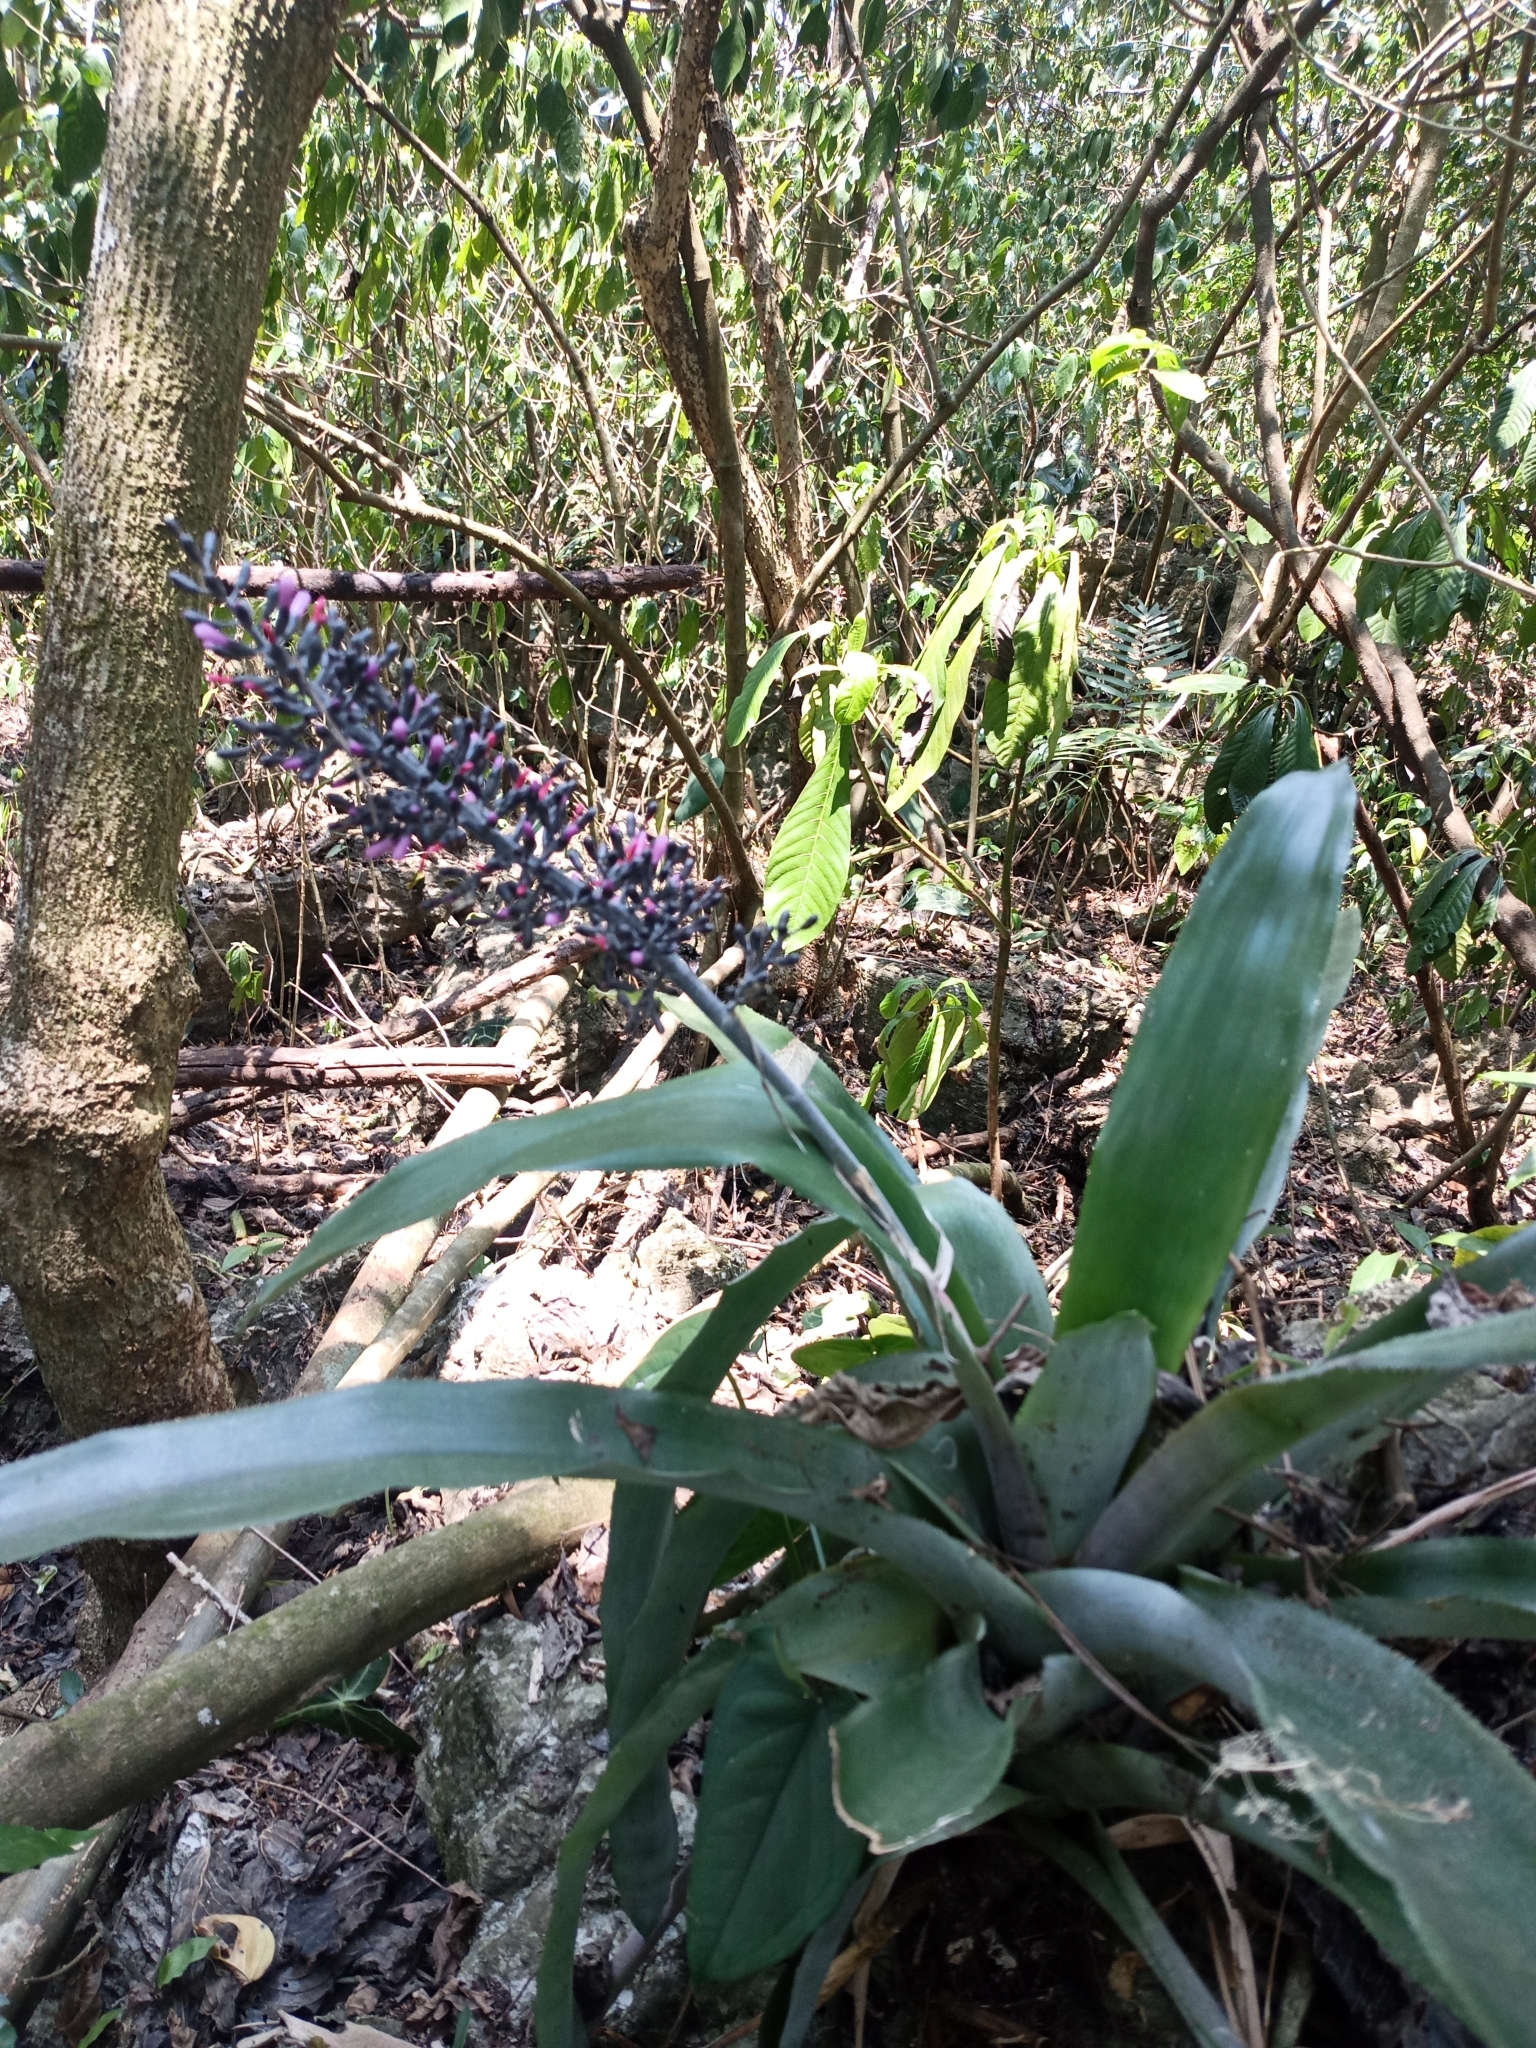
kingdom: Plantae
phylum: Tracheophyta
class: Liliopsida
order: Poales
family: Bromeliaceae
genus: Aechmea
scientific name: Aechmea lueddemanniana
